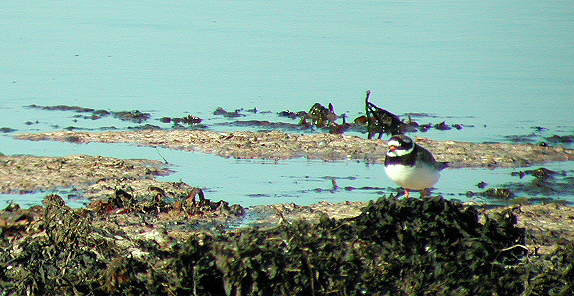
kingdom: Animalia
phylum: Chordata
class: Aves
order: Charadriiformes
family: Charadriidae
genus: Charadrius
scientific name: Charadrius hiaticula
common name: Common ringed plover
